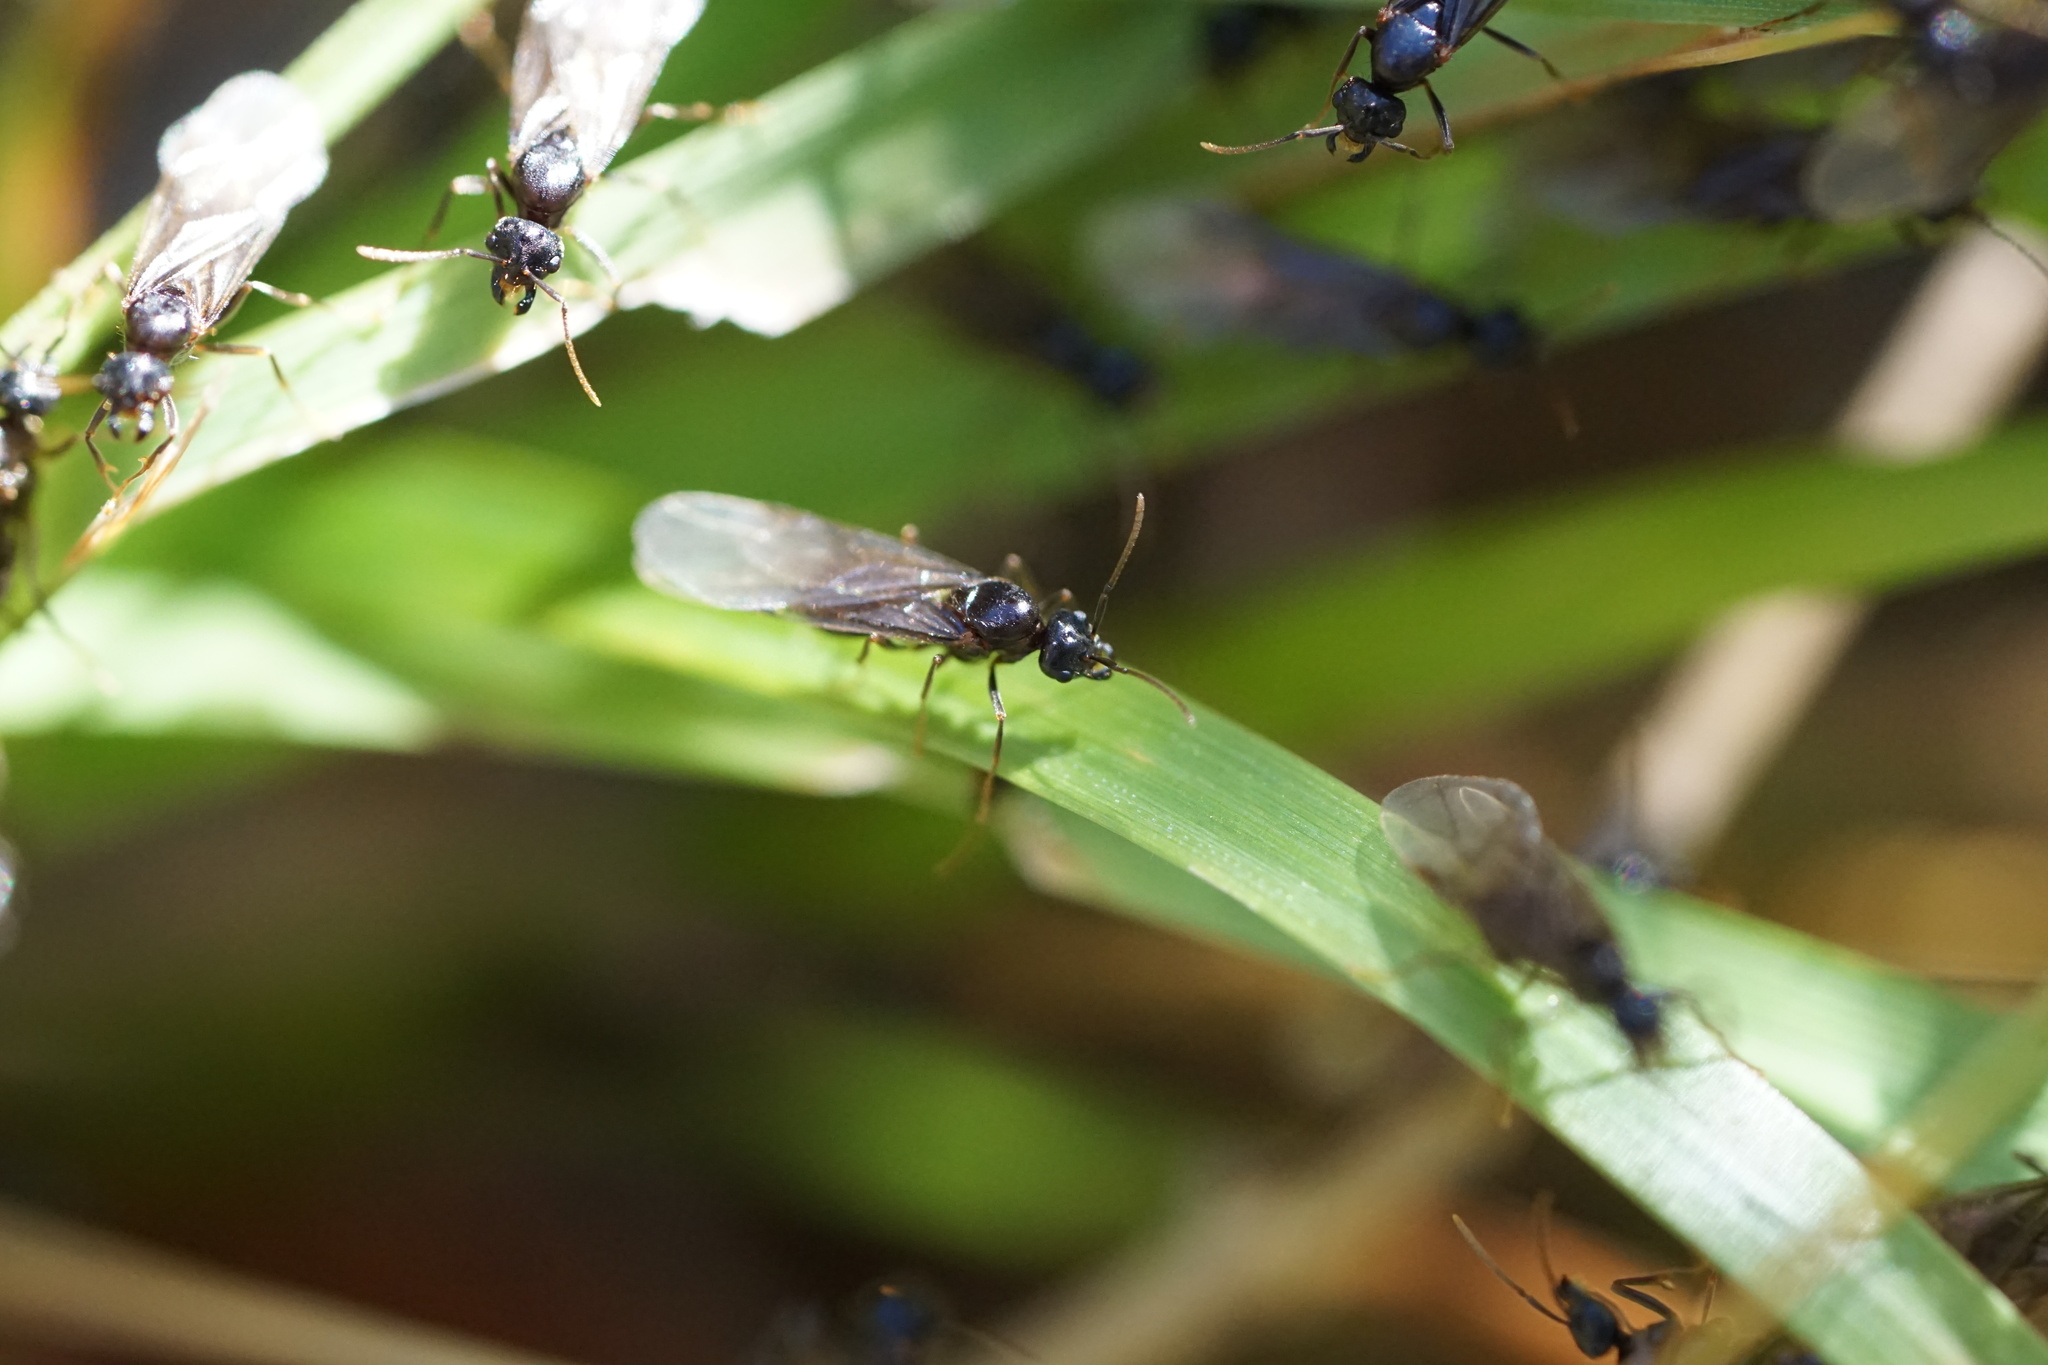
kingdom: Animalia
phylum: Arthropoda
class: Insecta
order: Hymenoptera
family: Formicidae
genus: Lasius
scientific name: Lasius claviger
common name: Common citronella ant
